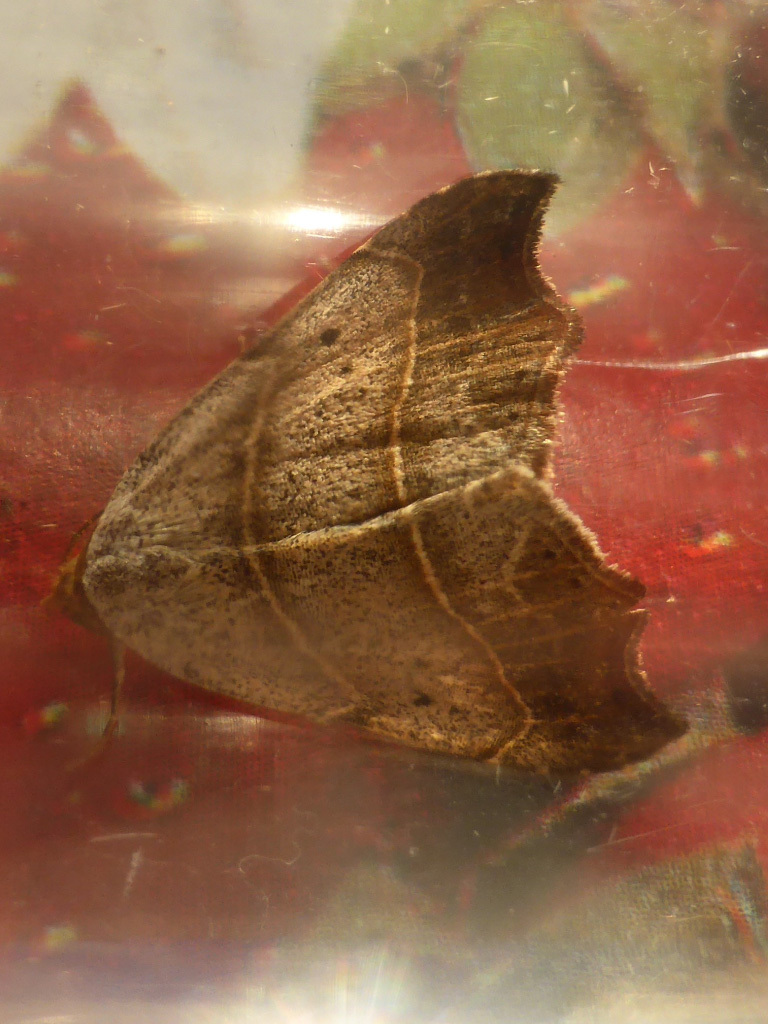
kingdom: Animalia
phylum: Arthropoda
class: Insecta
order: Lepidoptera
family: Erebidae
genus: Laspeyria
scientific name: Laspeyria flexula
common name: Beautiful hook-tip
